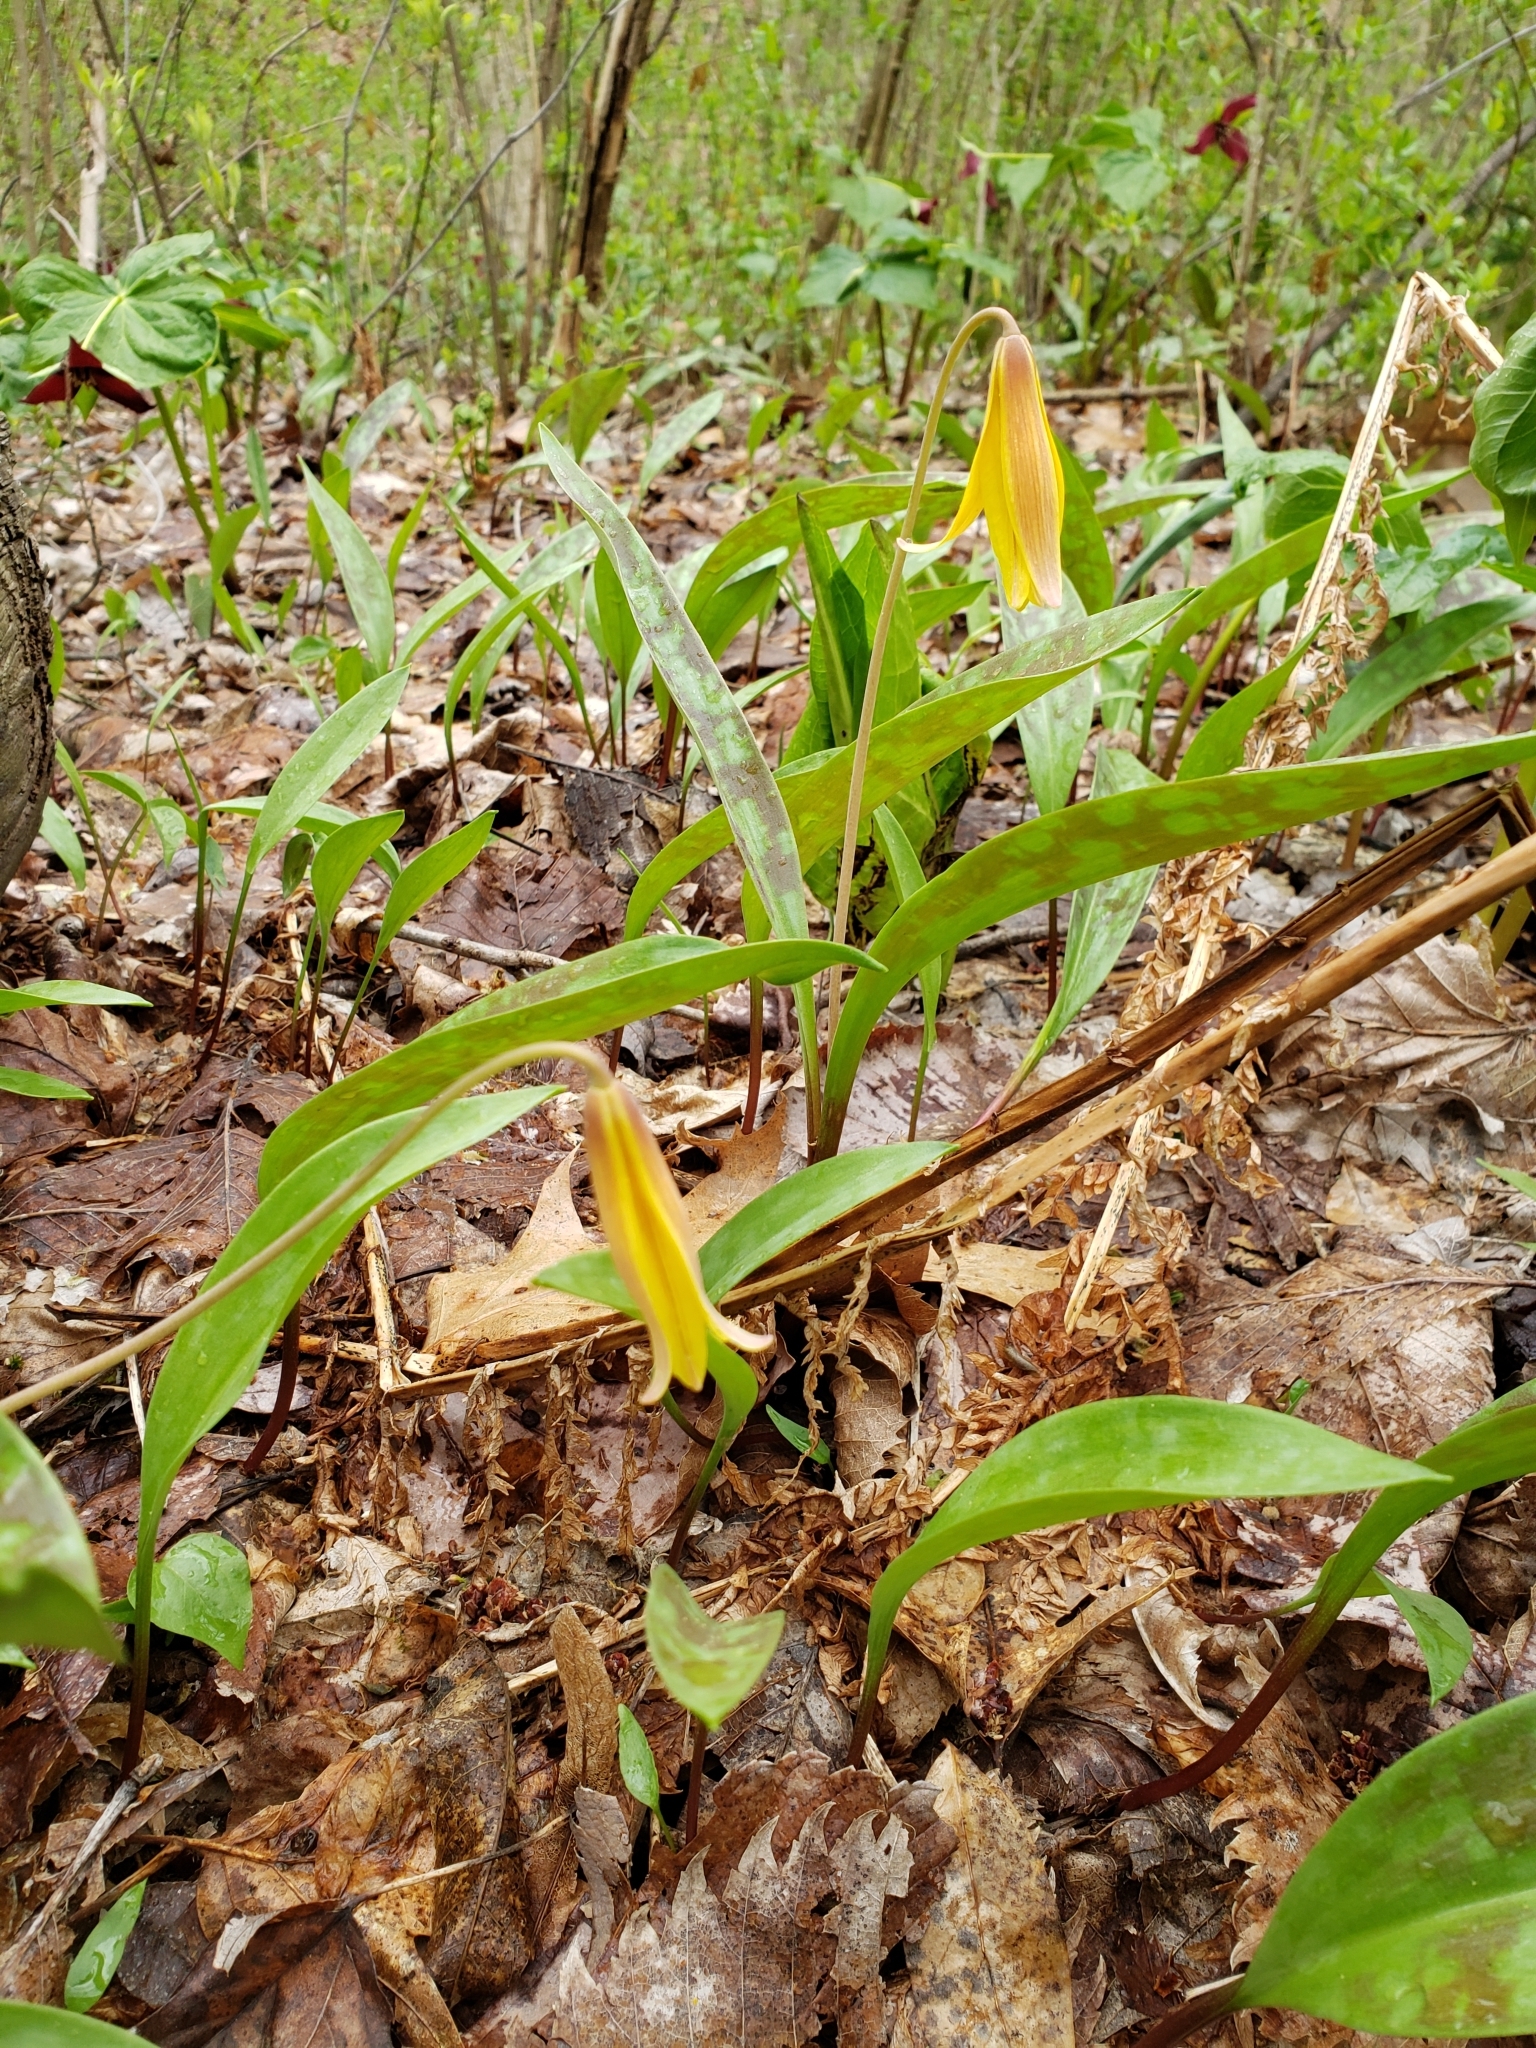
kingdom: Plantae
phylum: Tracheophyta
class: Liliopsida
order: Liliales
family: Liliaceae
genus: Erythronium
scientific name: Erythronium americanum
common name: Yellow adder's-tongue
